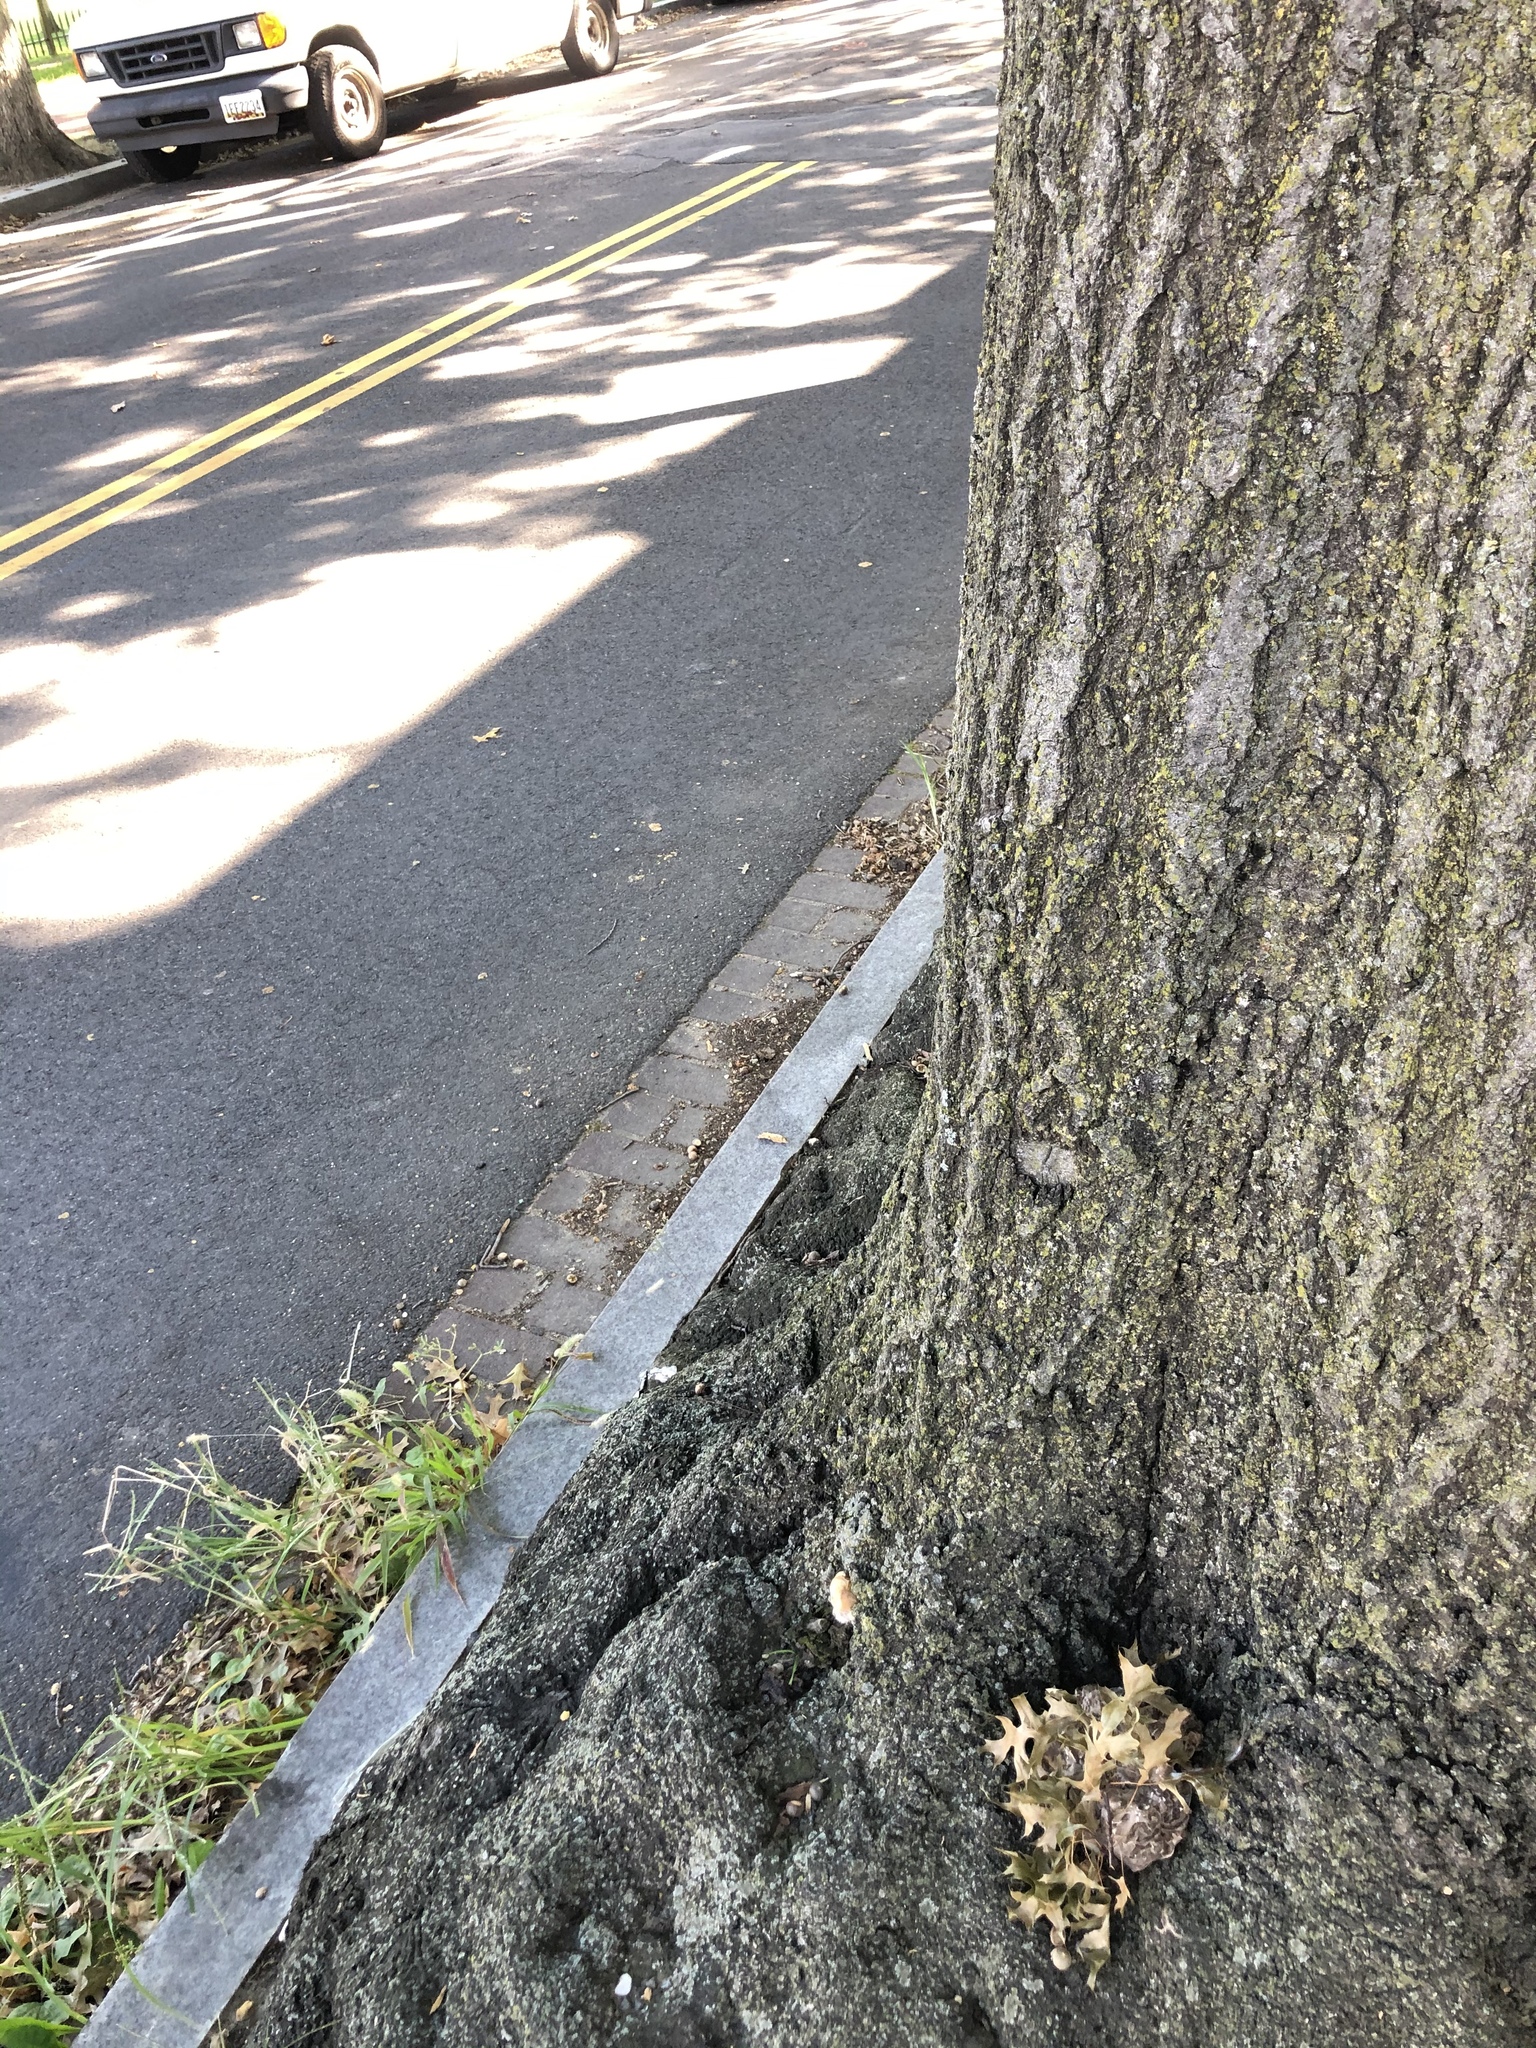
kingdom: Fungi
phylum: Basidiomycota
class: Agaricomycetes
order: Polyporales
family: Grifolaceae
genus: Grifola
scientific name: Grifola frondosa
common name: Hen of the woods
